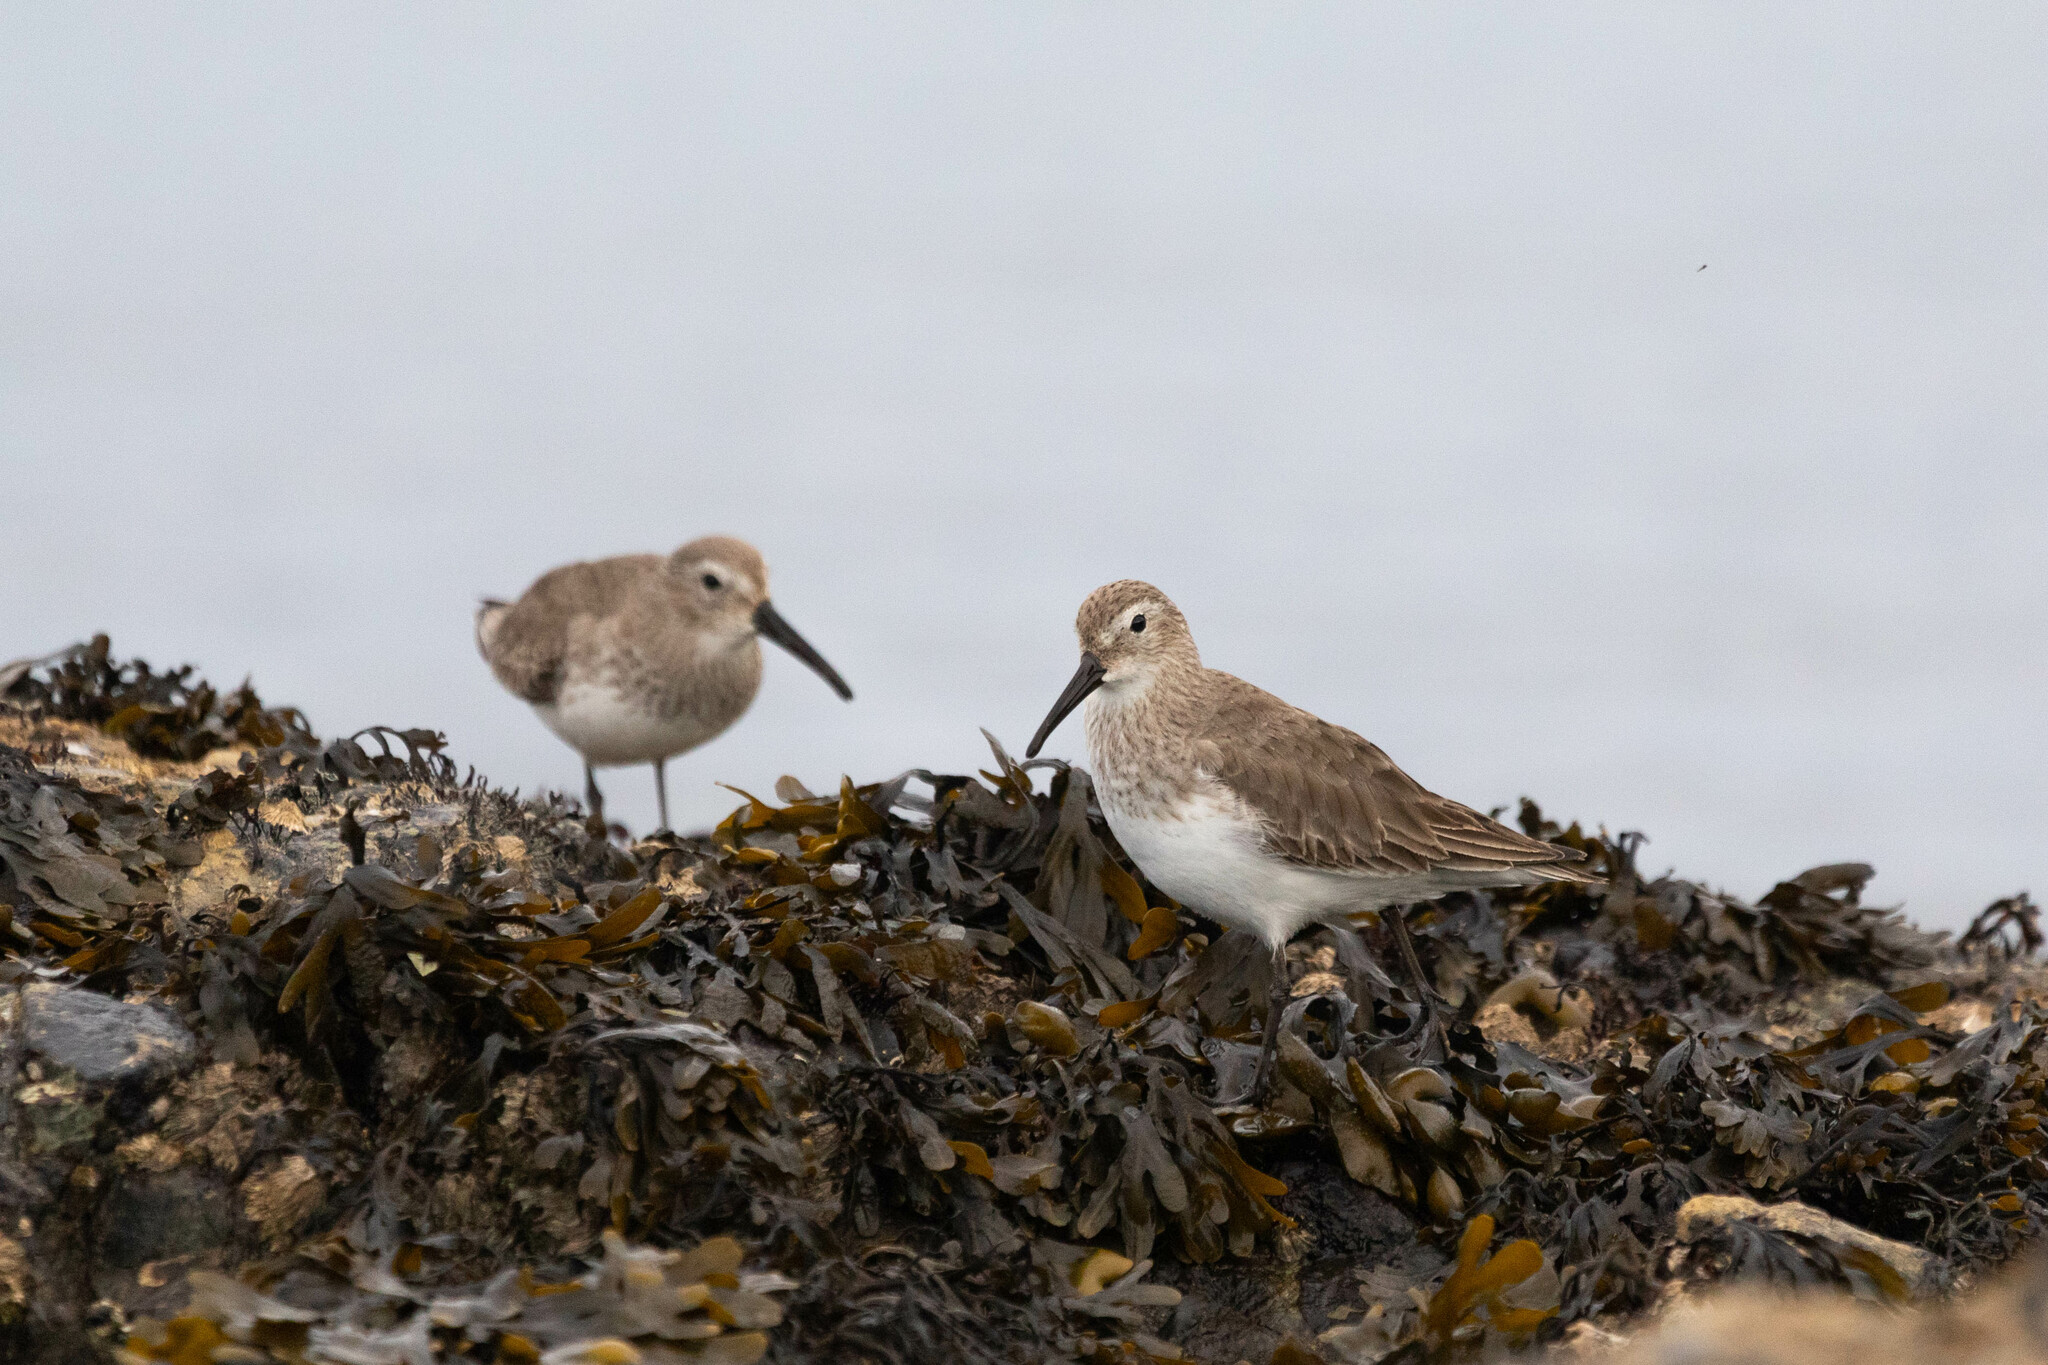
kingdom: Animalia
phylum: Chordata
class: Aves
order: Charadriiformes
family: Scolopacidae
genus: Calidris
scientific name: Calidris alpina
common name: Dunlin
